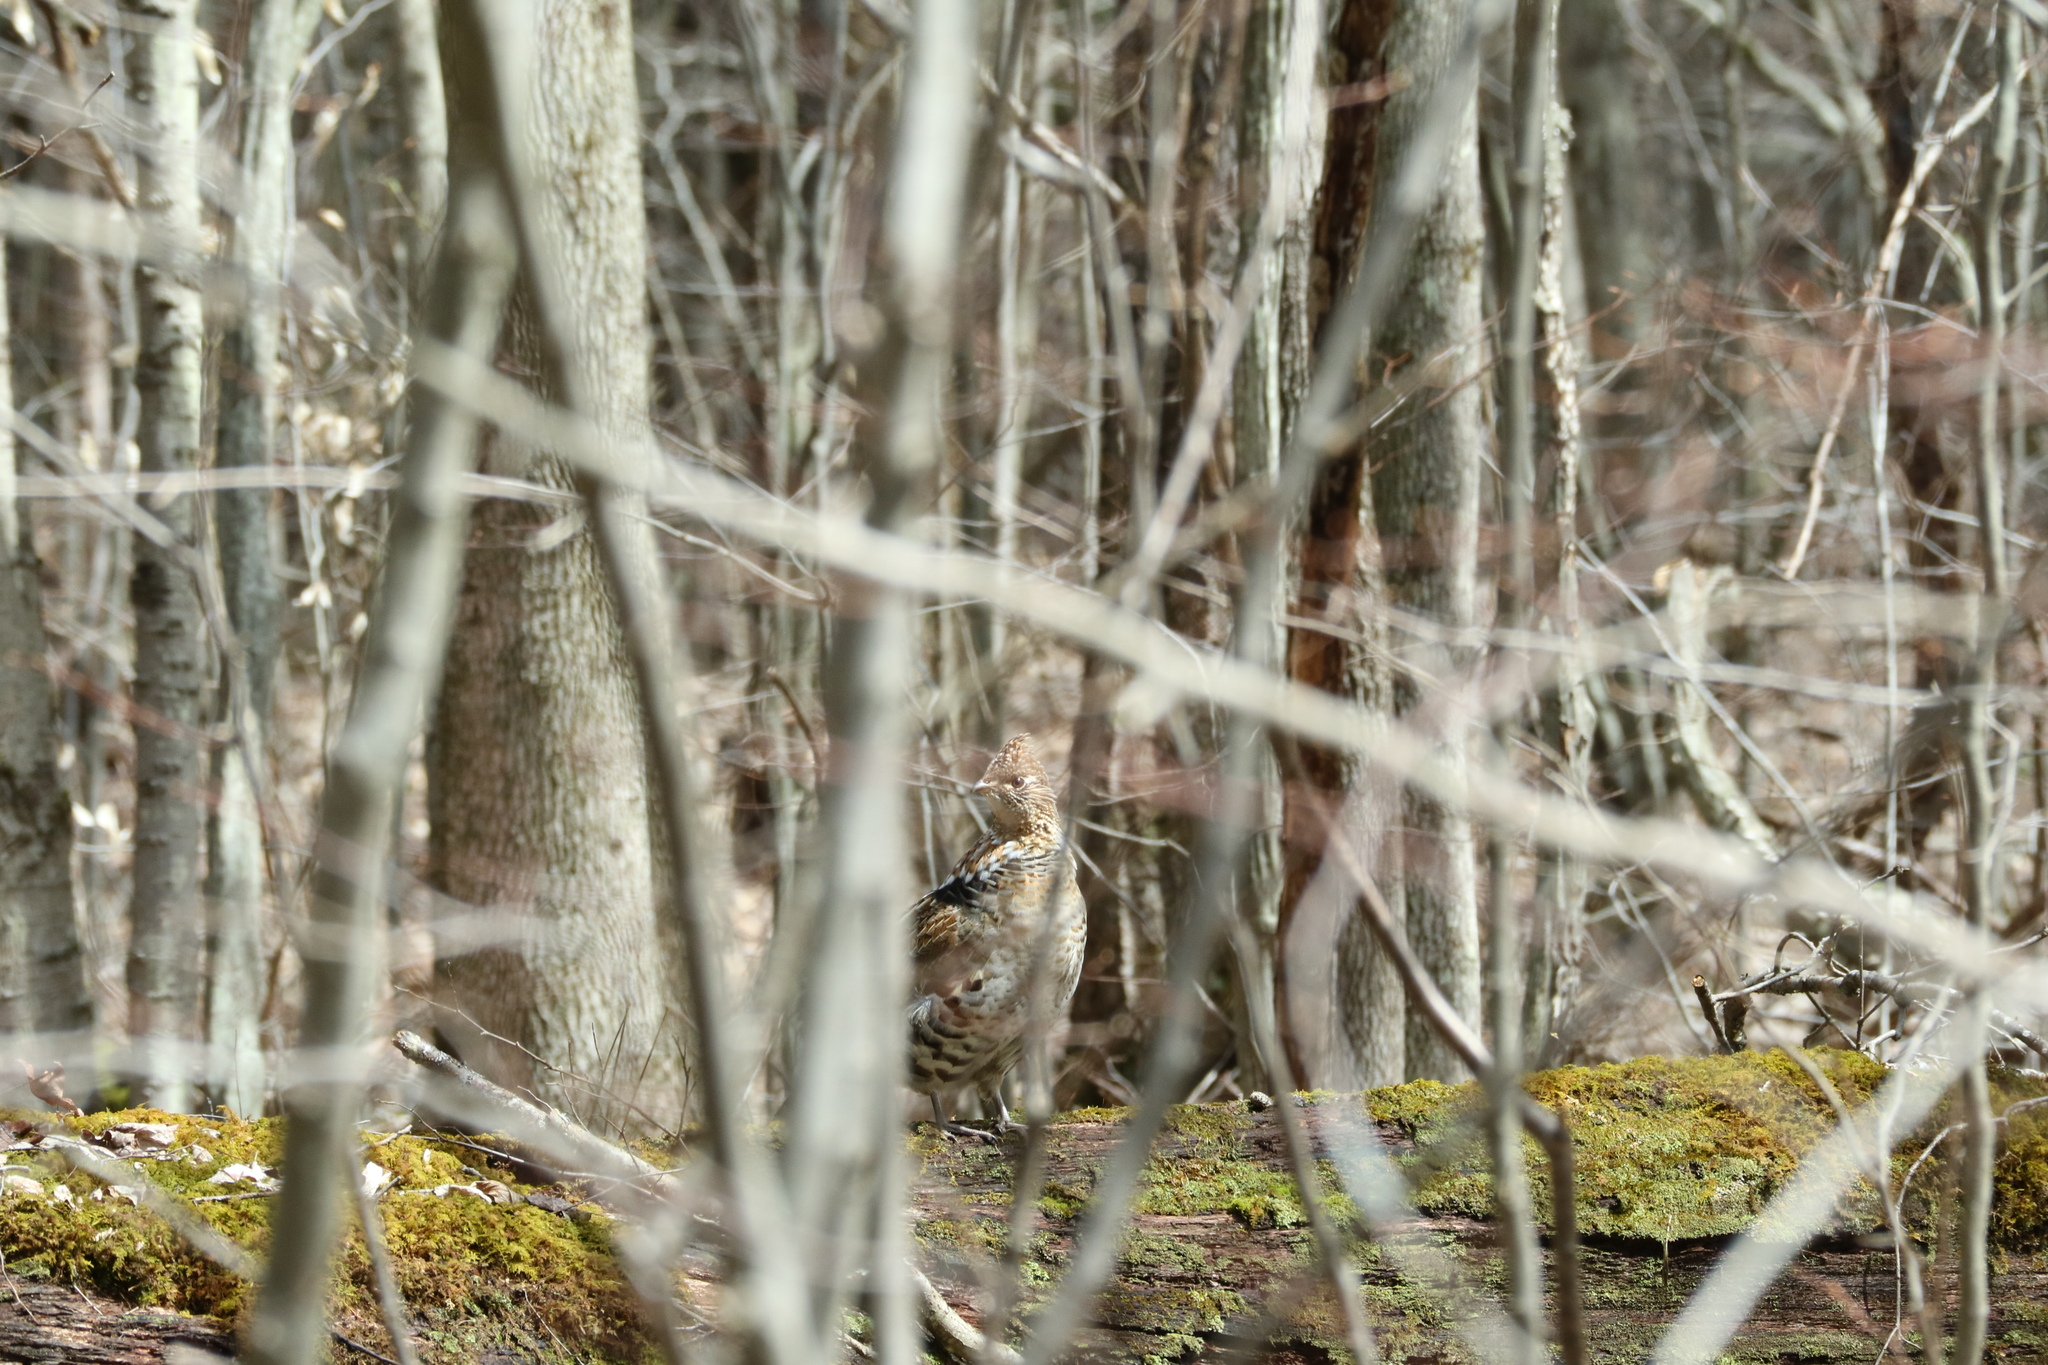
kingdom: Animalia
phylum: Chordata
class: Aves
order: Galliformes
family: Phasianidae
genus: Bonasa
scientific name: Bonasa umbellus
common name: Ruffed grouse
